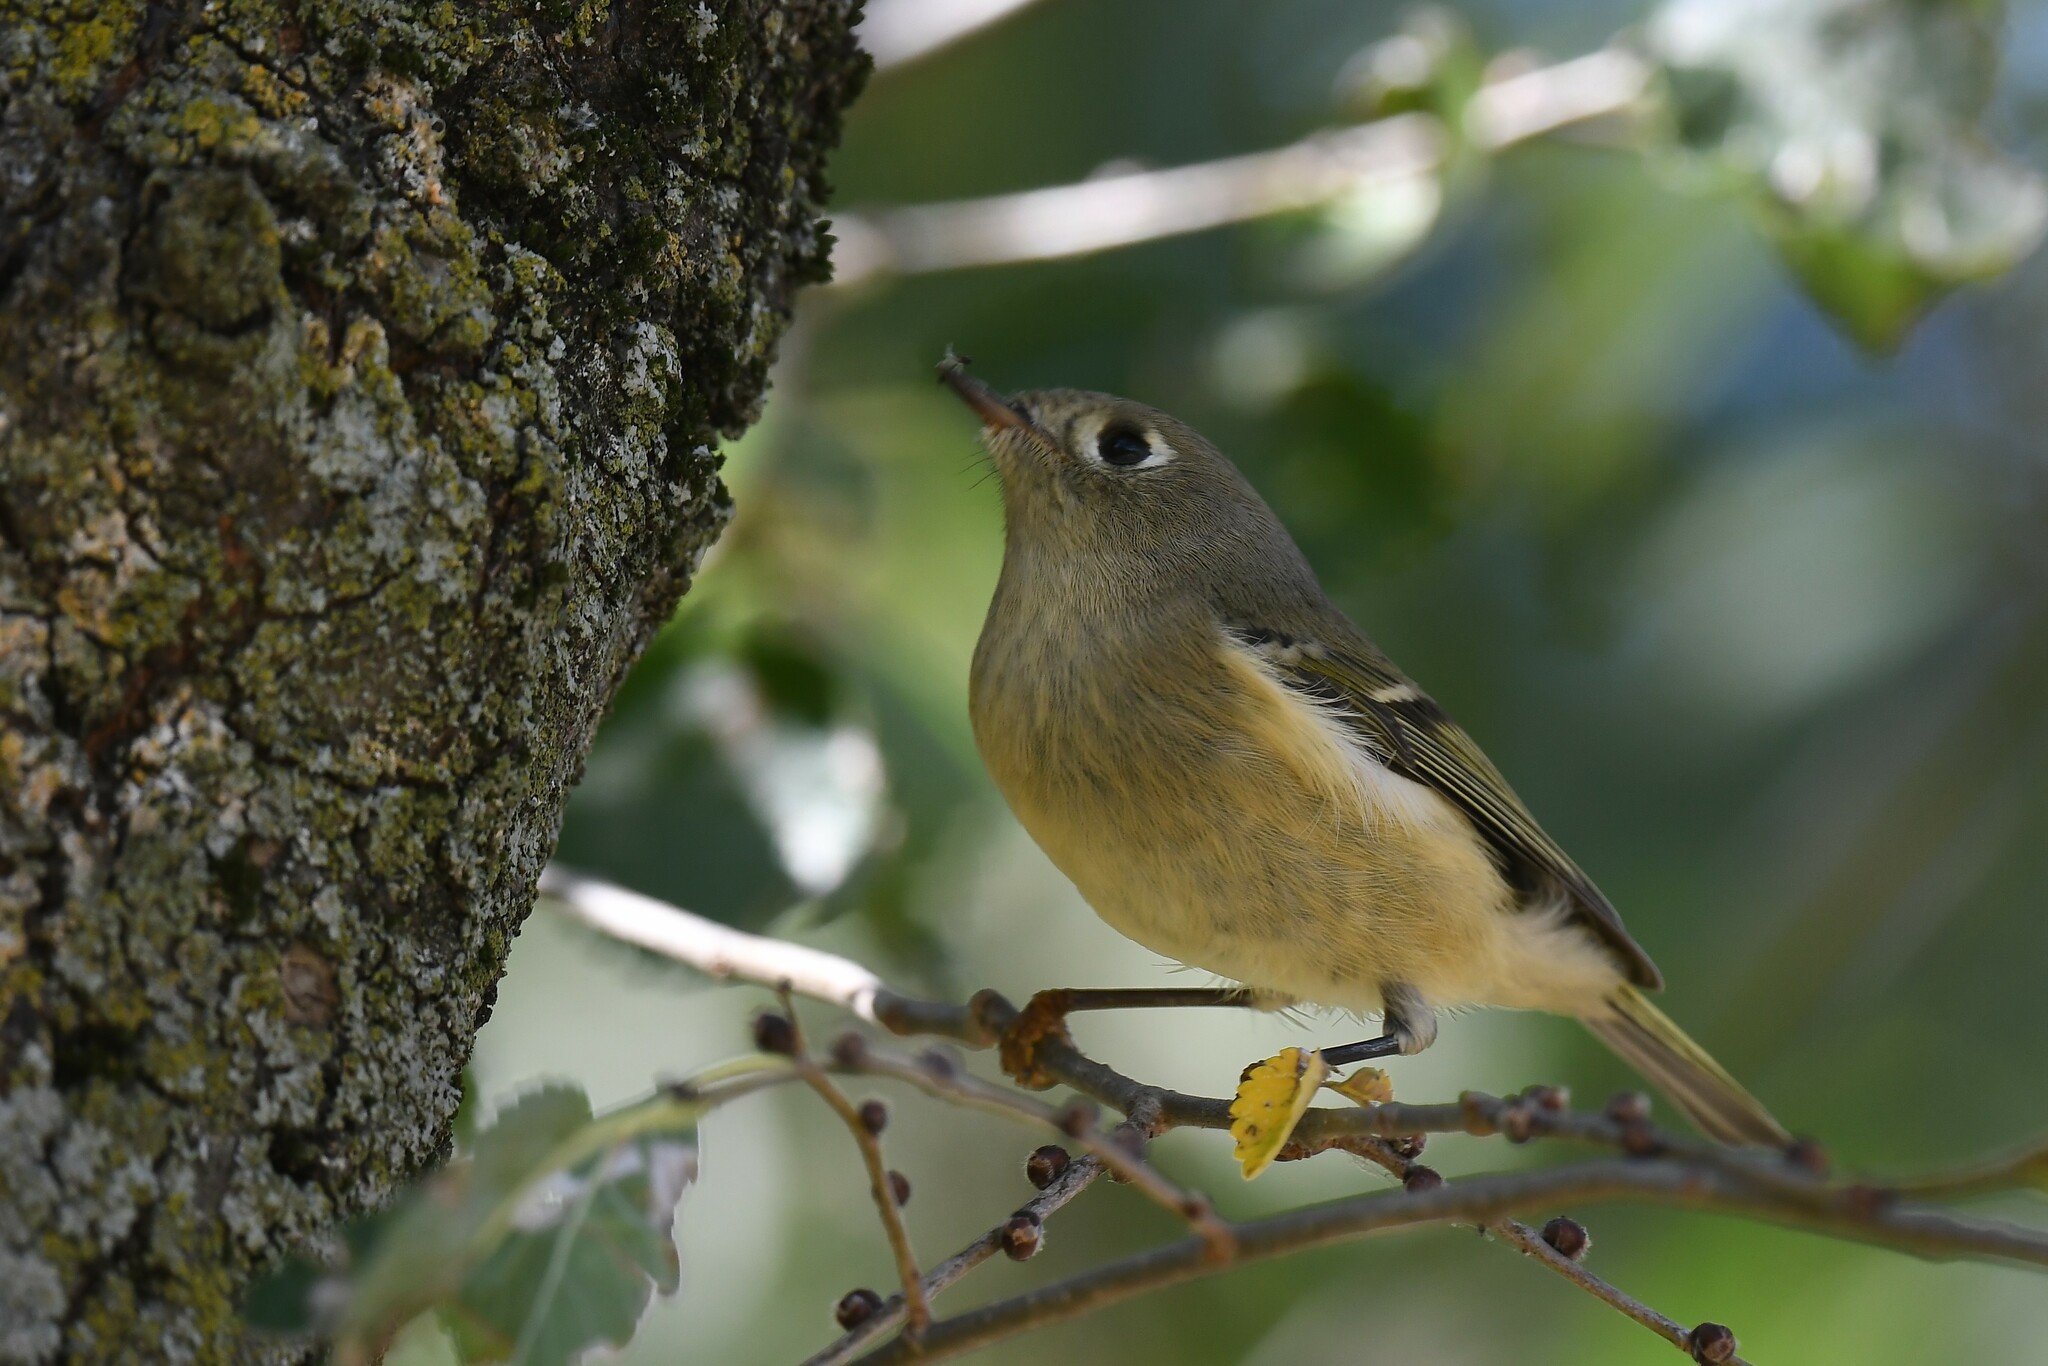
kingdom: Animalia
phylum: Chordata
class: Aves
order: Passeriformes
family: Regulidae
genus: Regulus
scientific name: Regulus calendula
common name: Ruby-crowned kinglet
